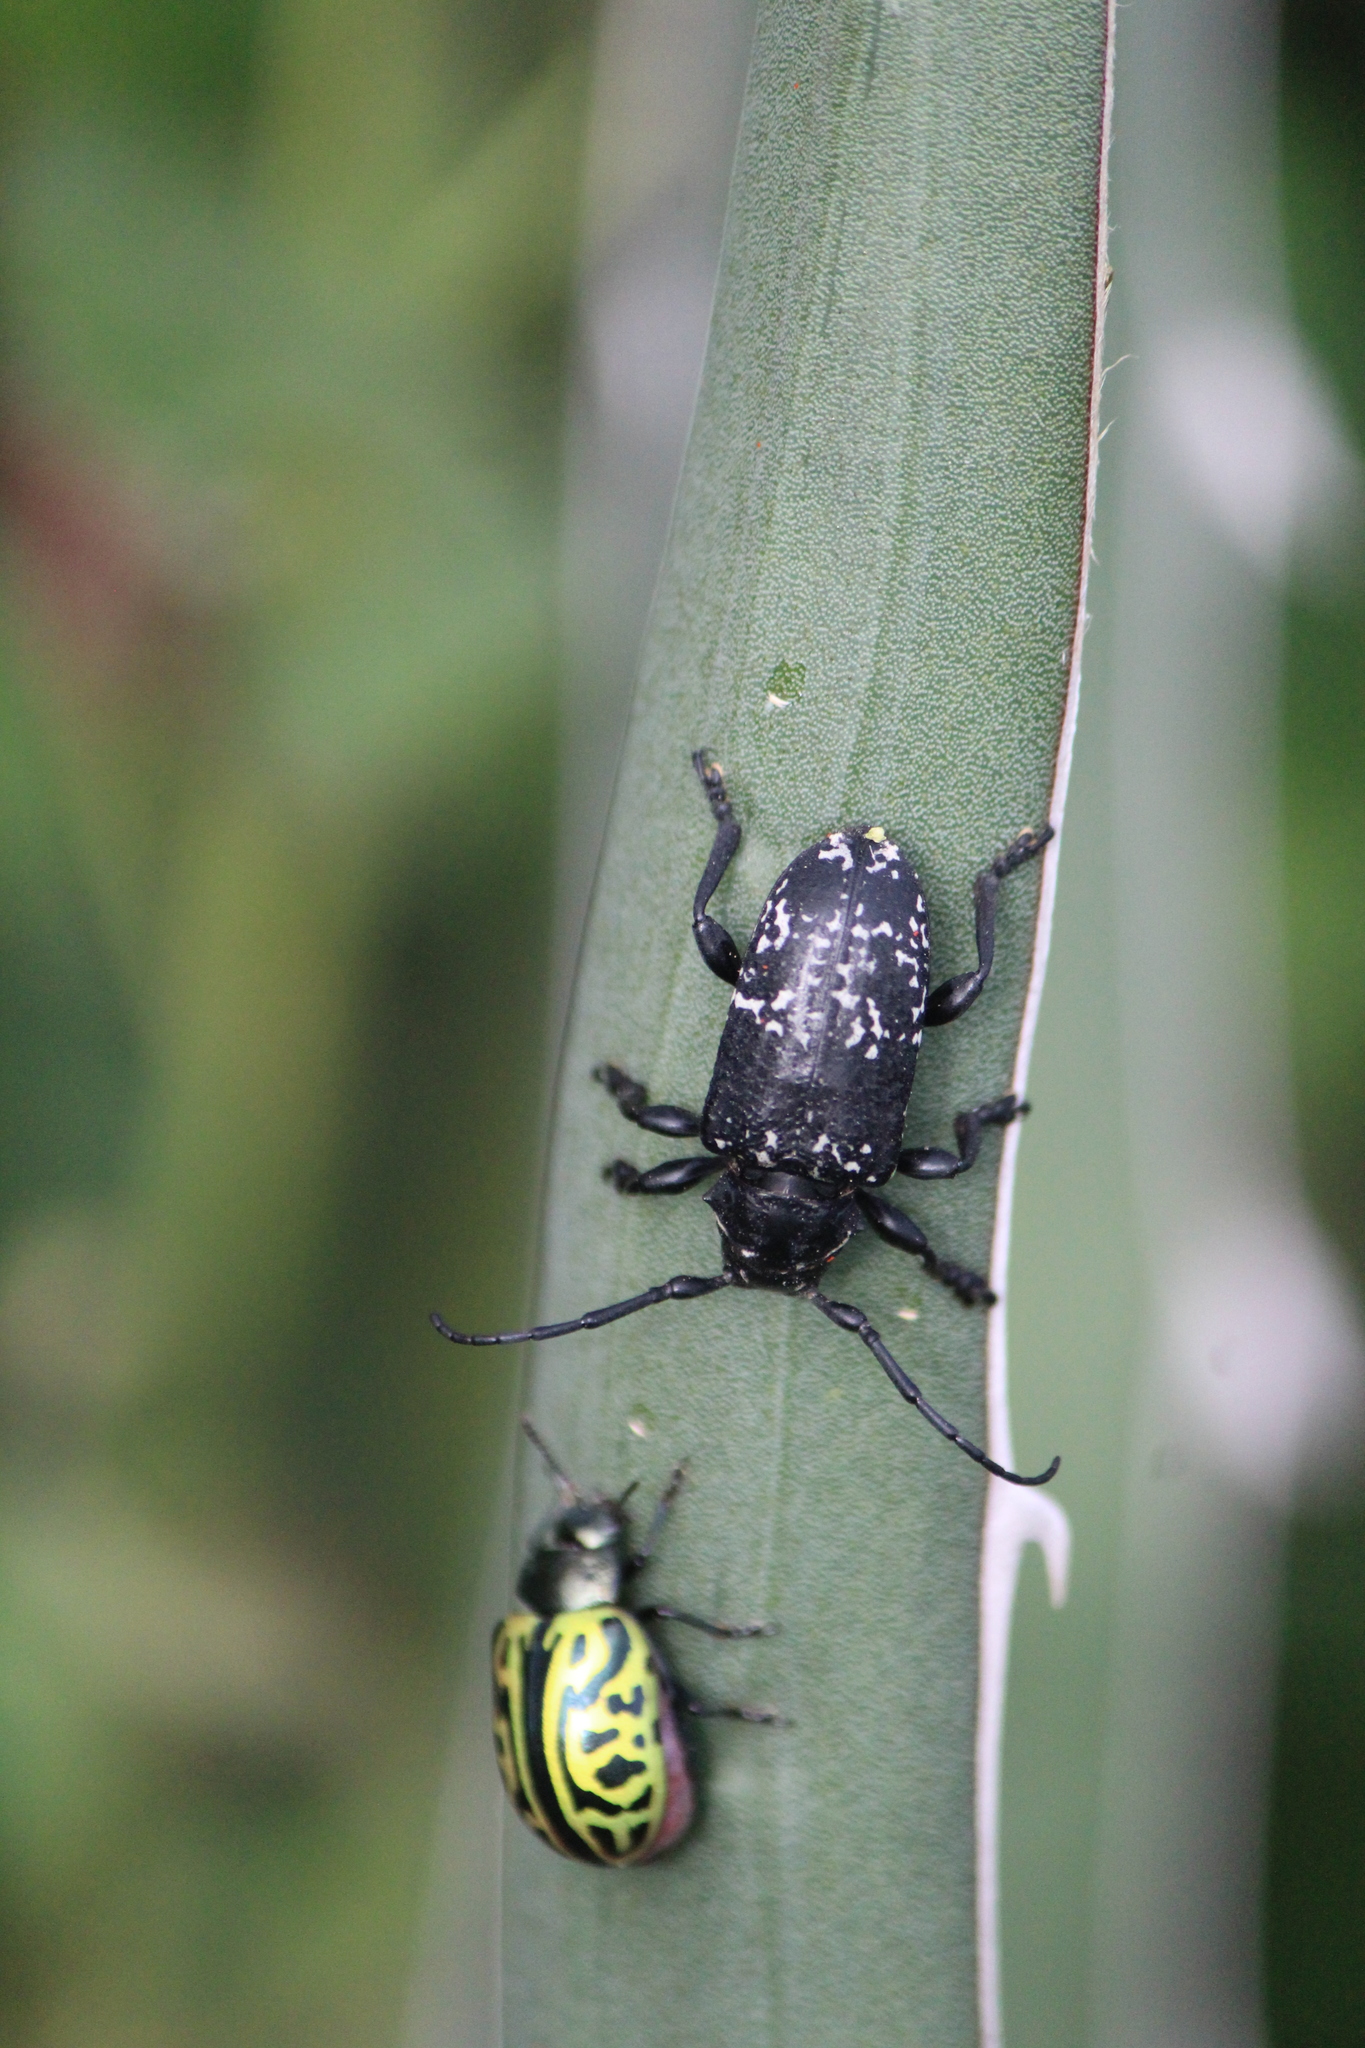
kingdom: Animalia
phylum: Arthropoda
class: Insecta
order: Coleoptera
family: Cerambycidae
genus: Acanthoderes
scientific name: Acanthoderes funeraria
